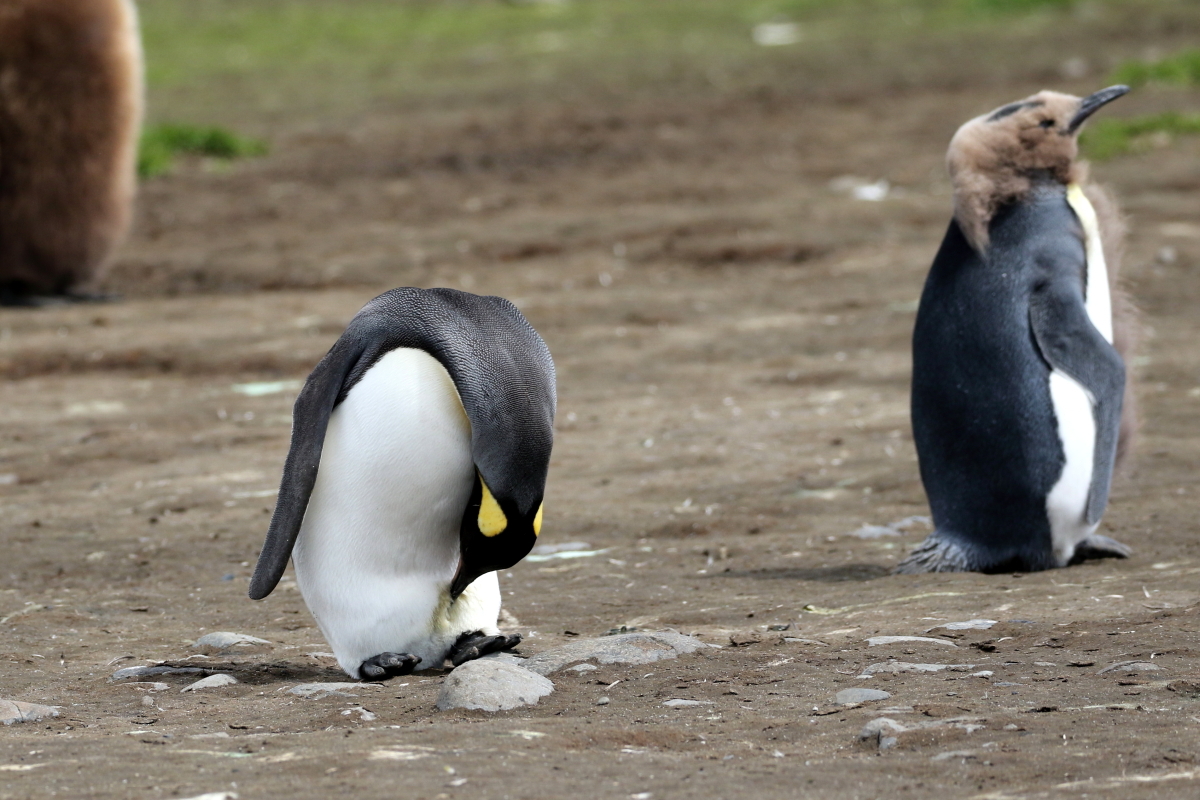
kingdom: Animalia
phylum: Chordata
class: Aves
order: Sphenisciformes
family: Spheniscidae
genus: Aptenodytes
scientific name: Aptenodytes patagonicus
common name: King penguin
